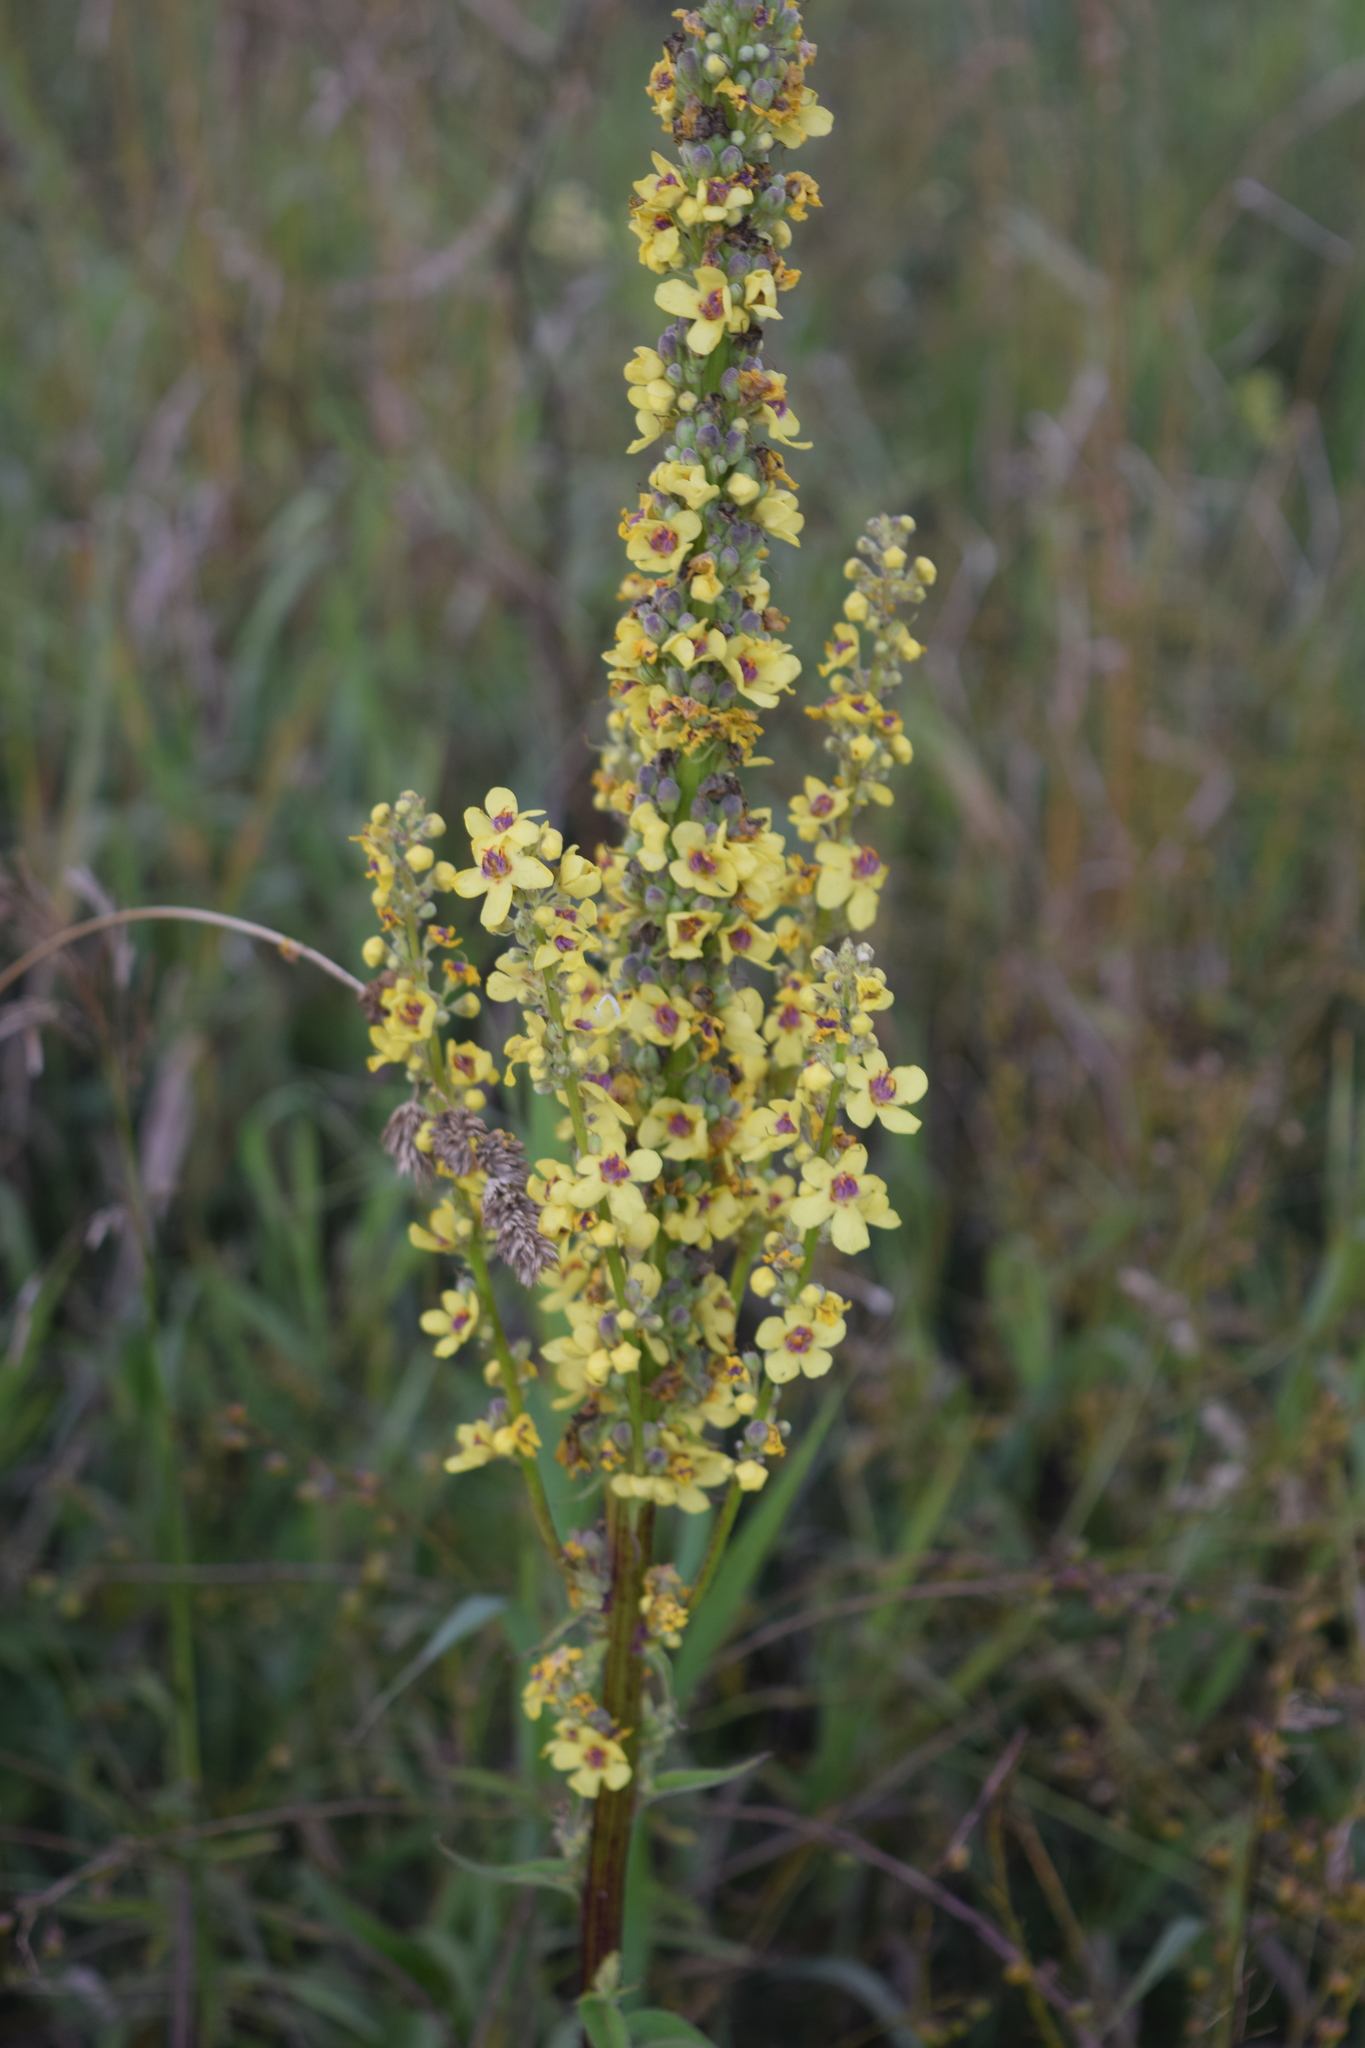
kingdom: Plantae
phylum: Tracheophyta
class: Magnoliopsida
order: Lamiales
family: Scrophulariaceae
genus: Verbascum
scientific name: Verbascum nigrum
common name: Dark mullein
